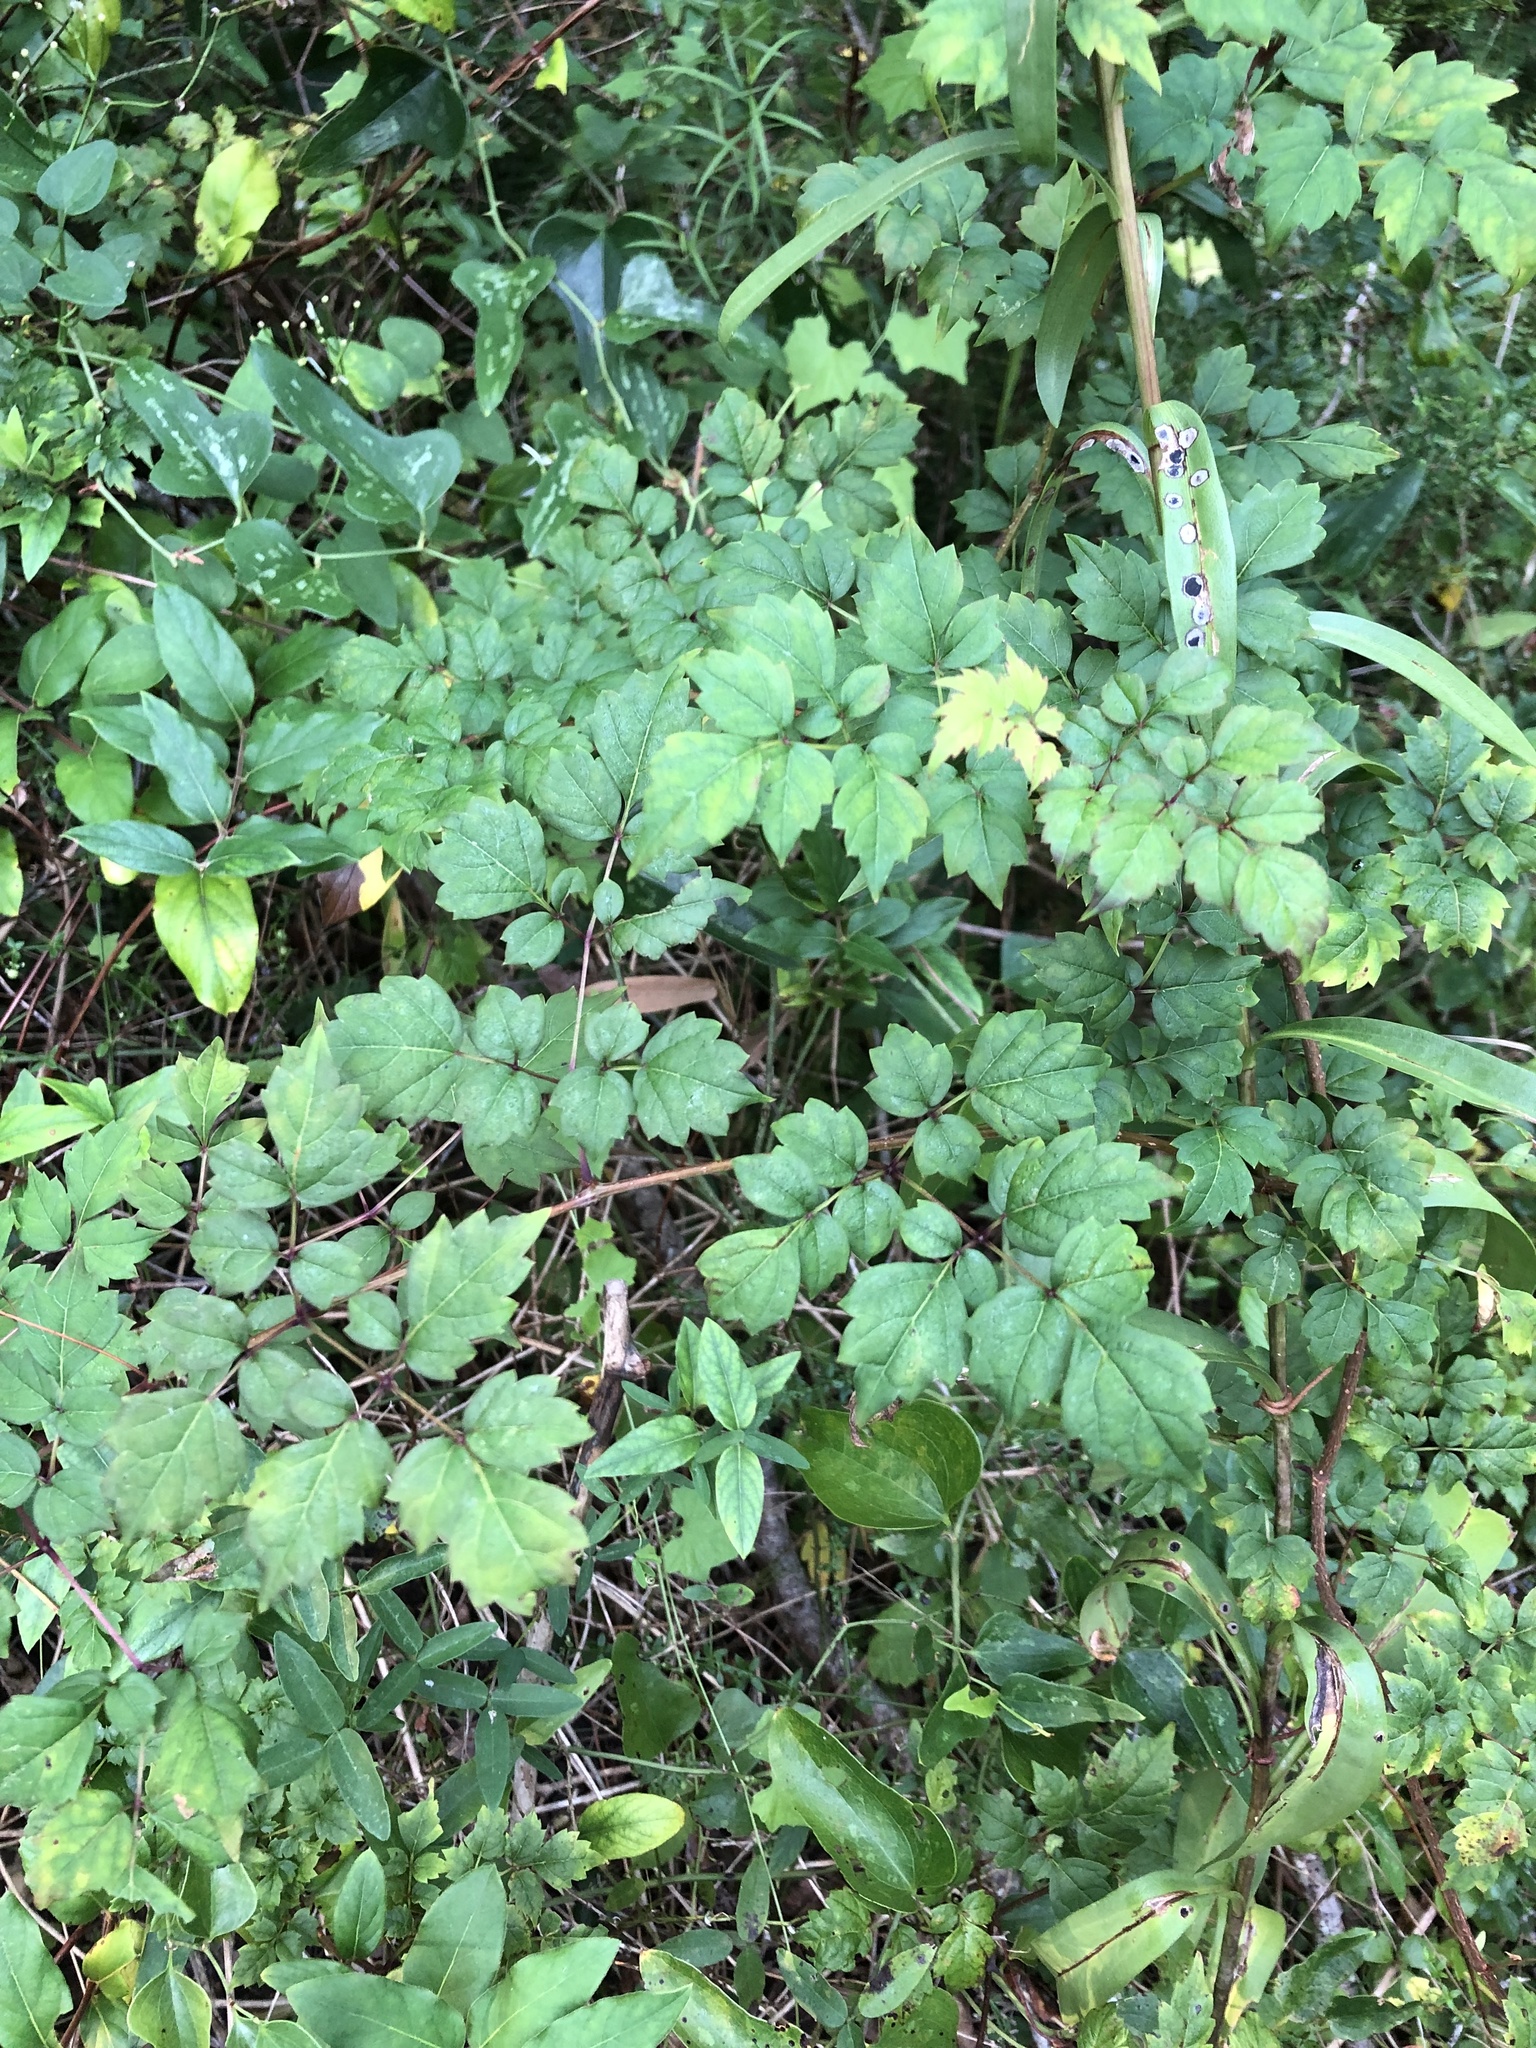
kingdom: Plantae
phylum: Tracheophyta
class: Magnoliopsida
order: Vitales
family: Vitaceae
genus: Nekemias
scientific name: Nekemias arborea
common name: Peppervine
